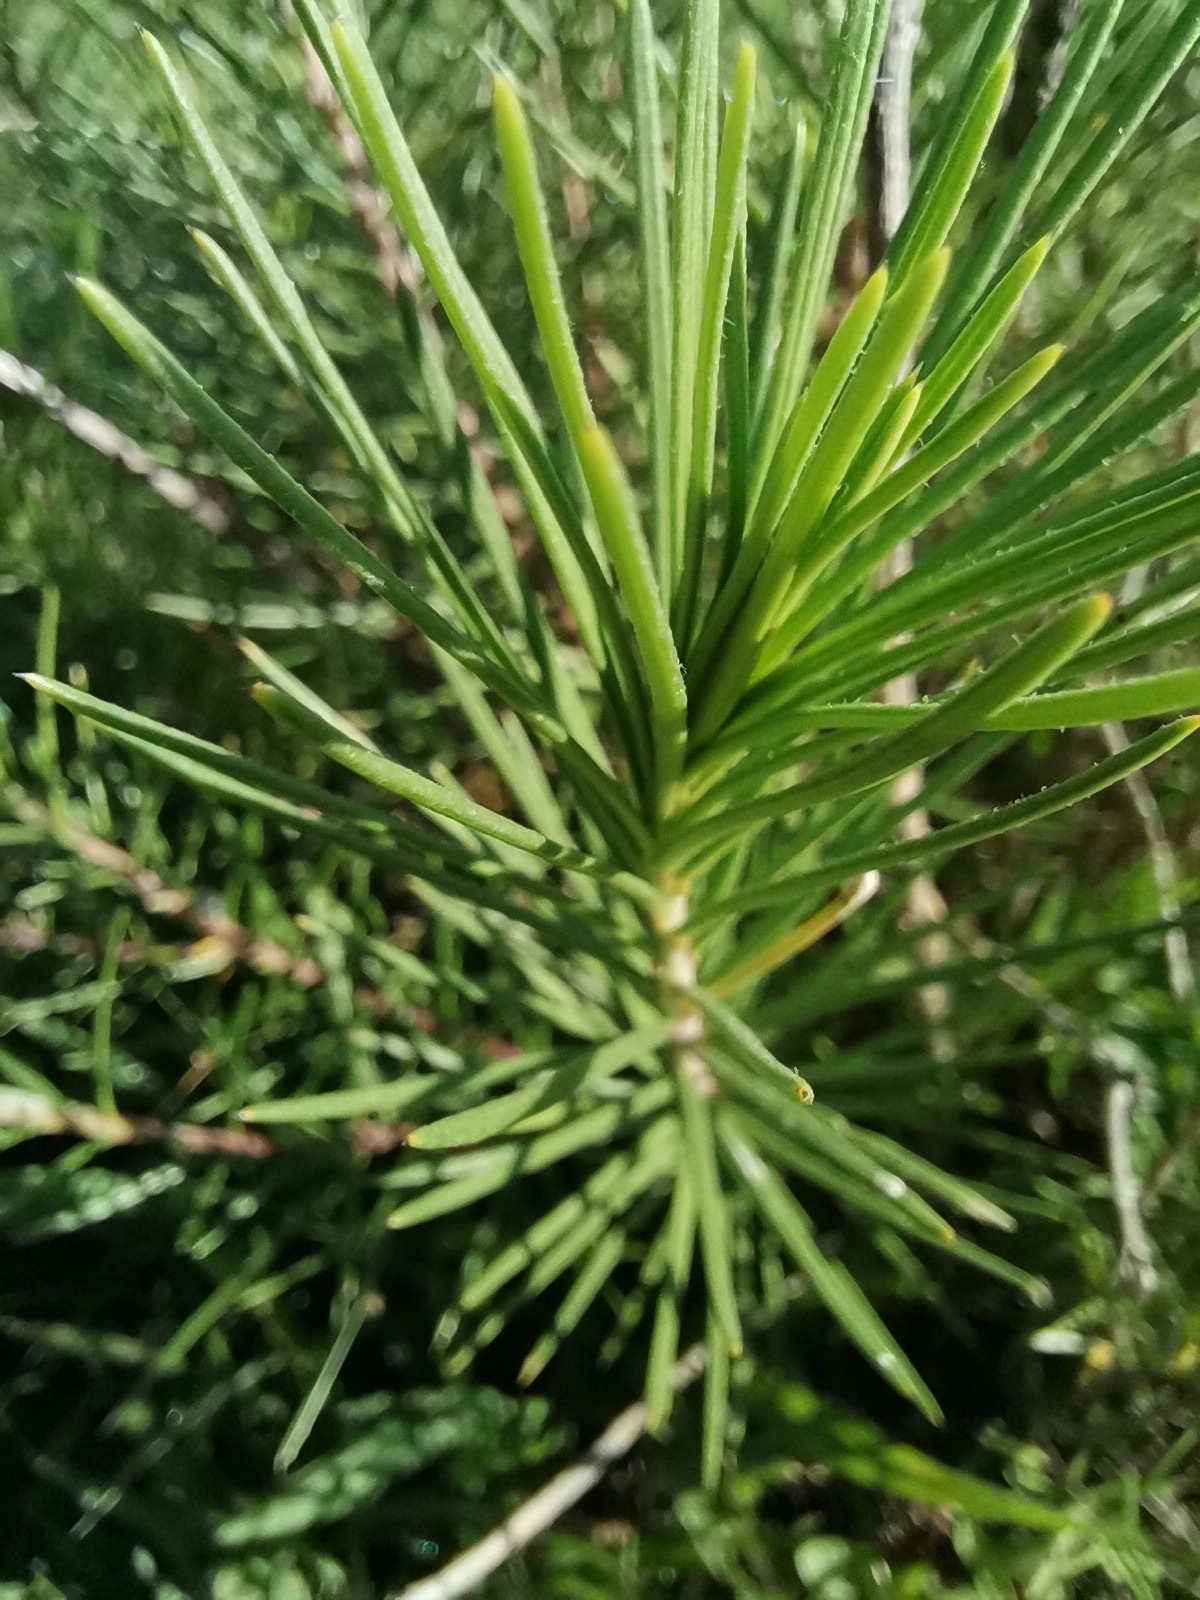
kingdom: Plantae
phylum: Tracheophyta
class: Magnoliopsida
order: Gentianales
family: Apocynaceae
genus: Asclepias
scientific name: Asclepias linaria
